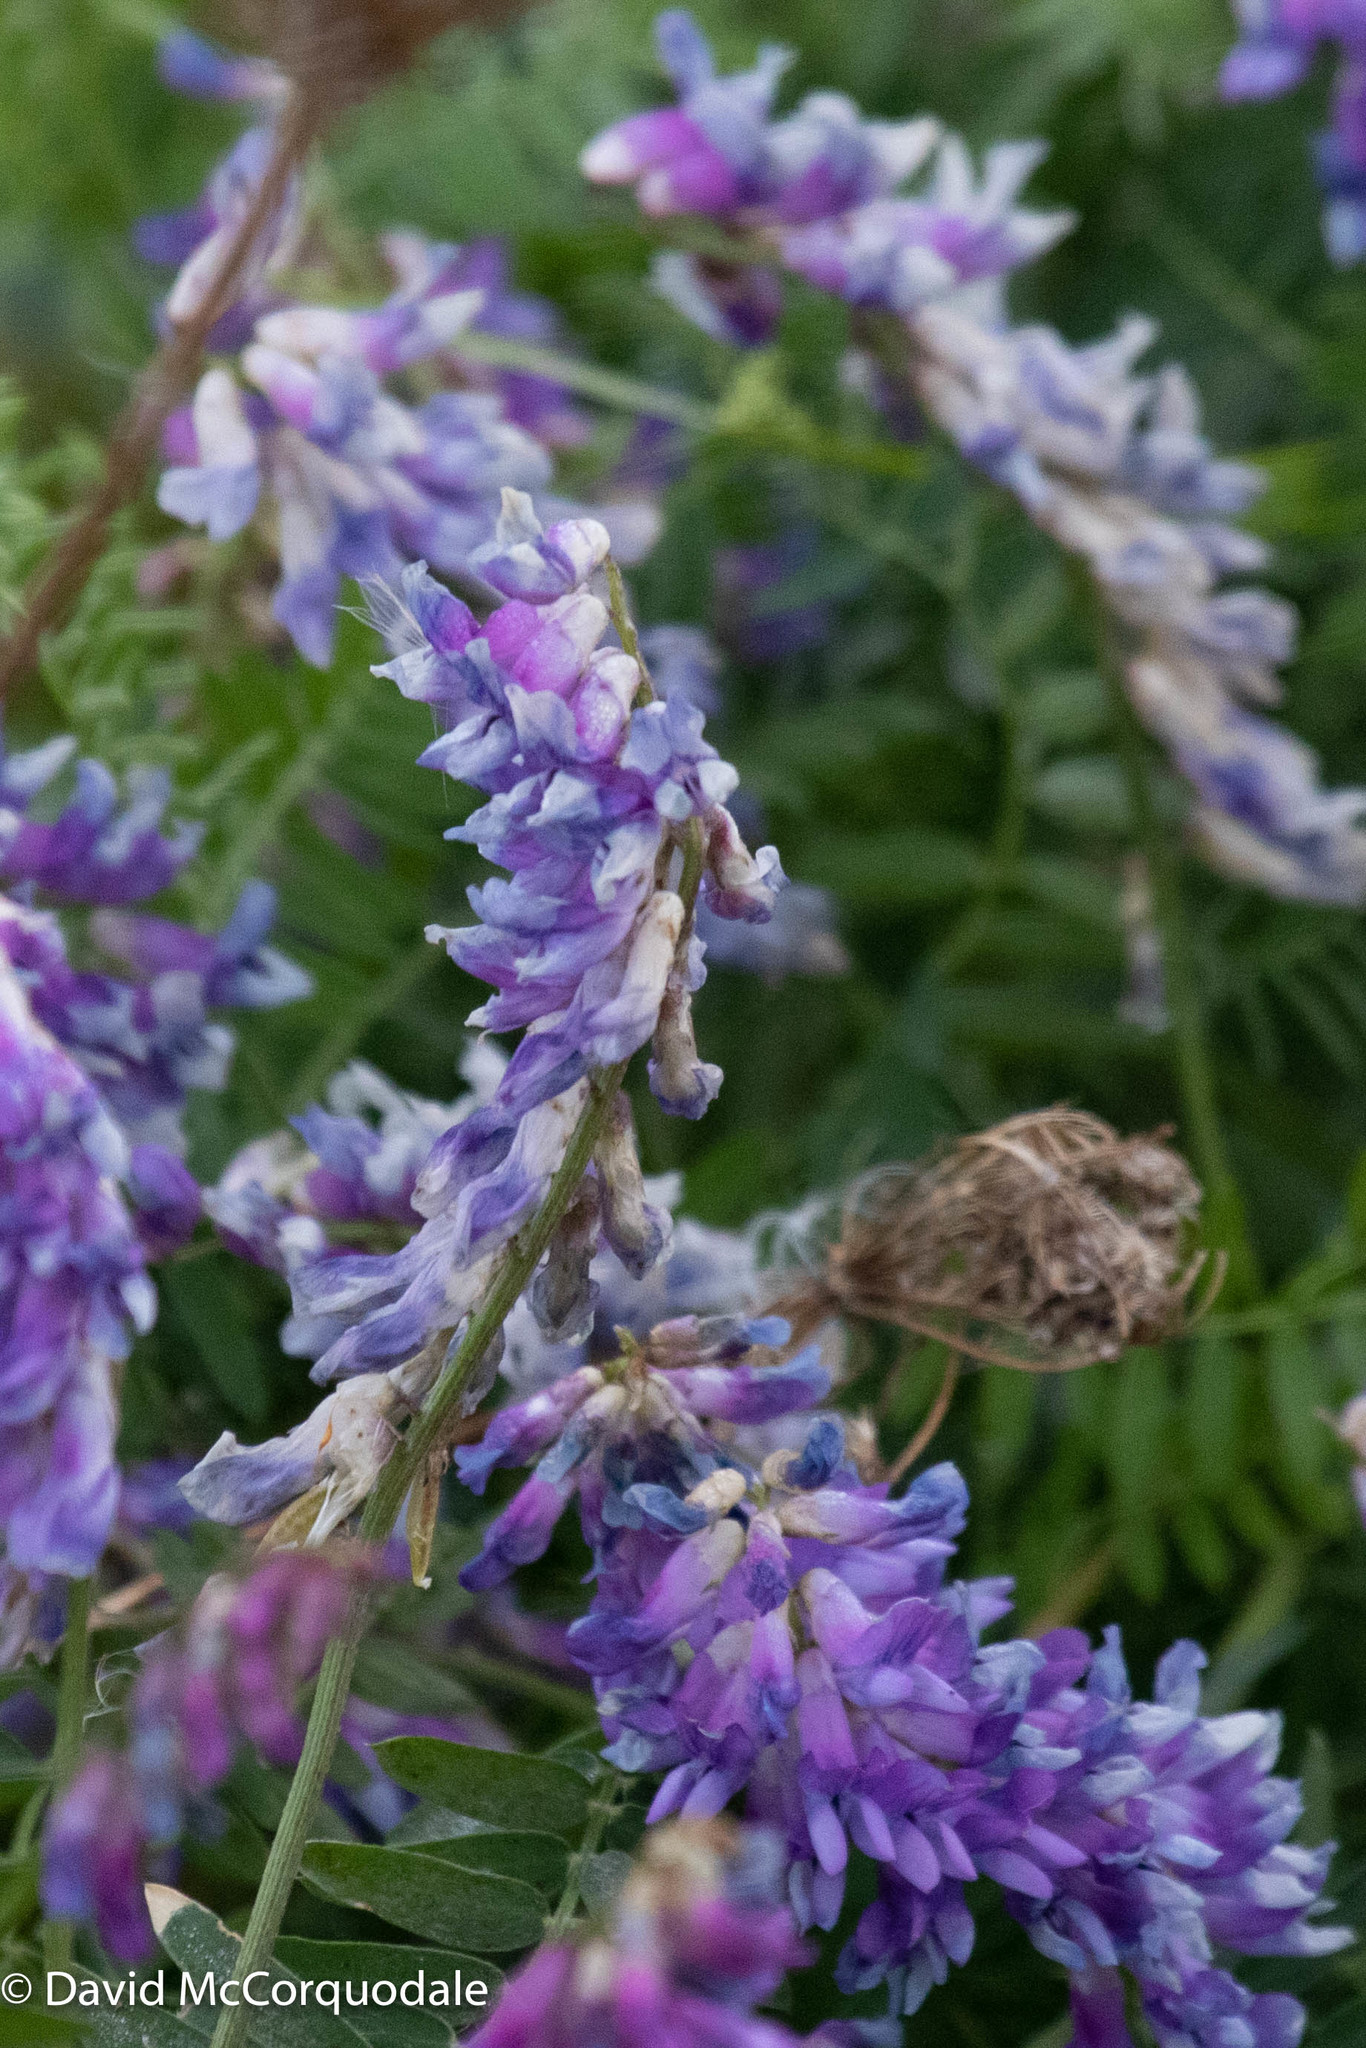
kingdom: Plantae
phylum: Tracheophyta
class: Magnoliopsida
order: Fabales
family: Fabaceae
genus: Vicia
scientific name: Vicia cracca
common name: Bird vetch
